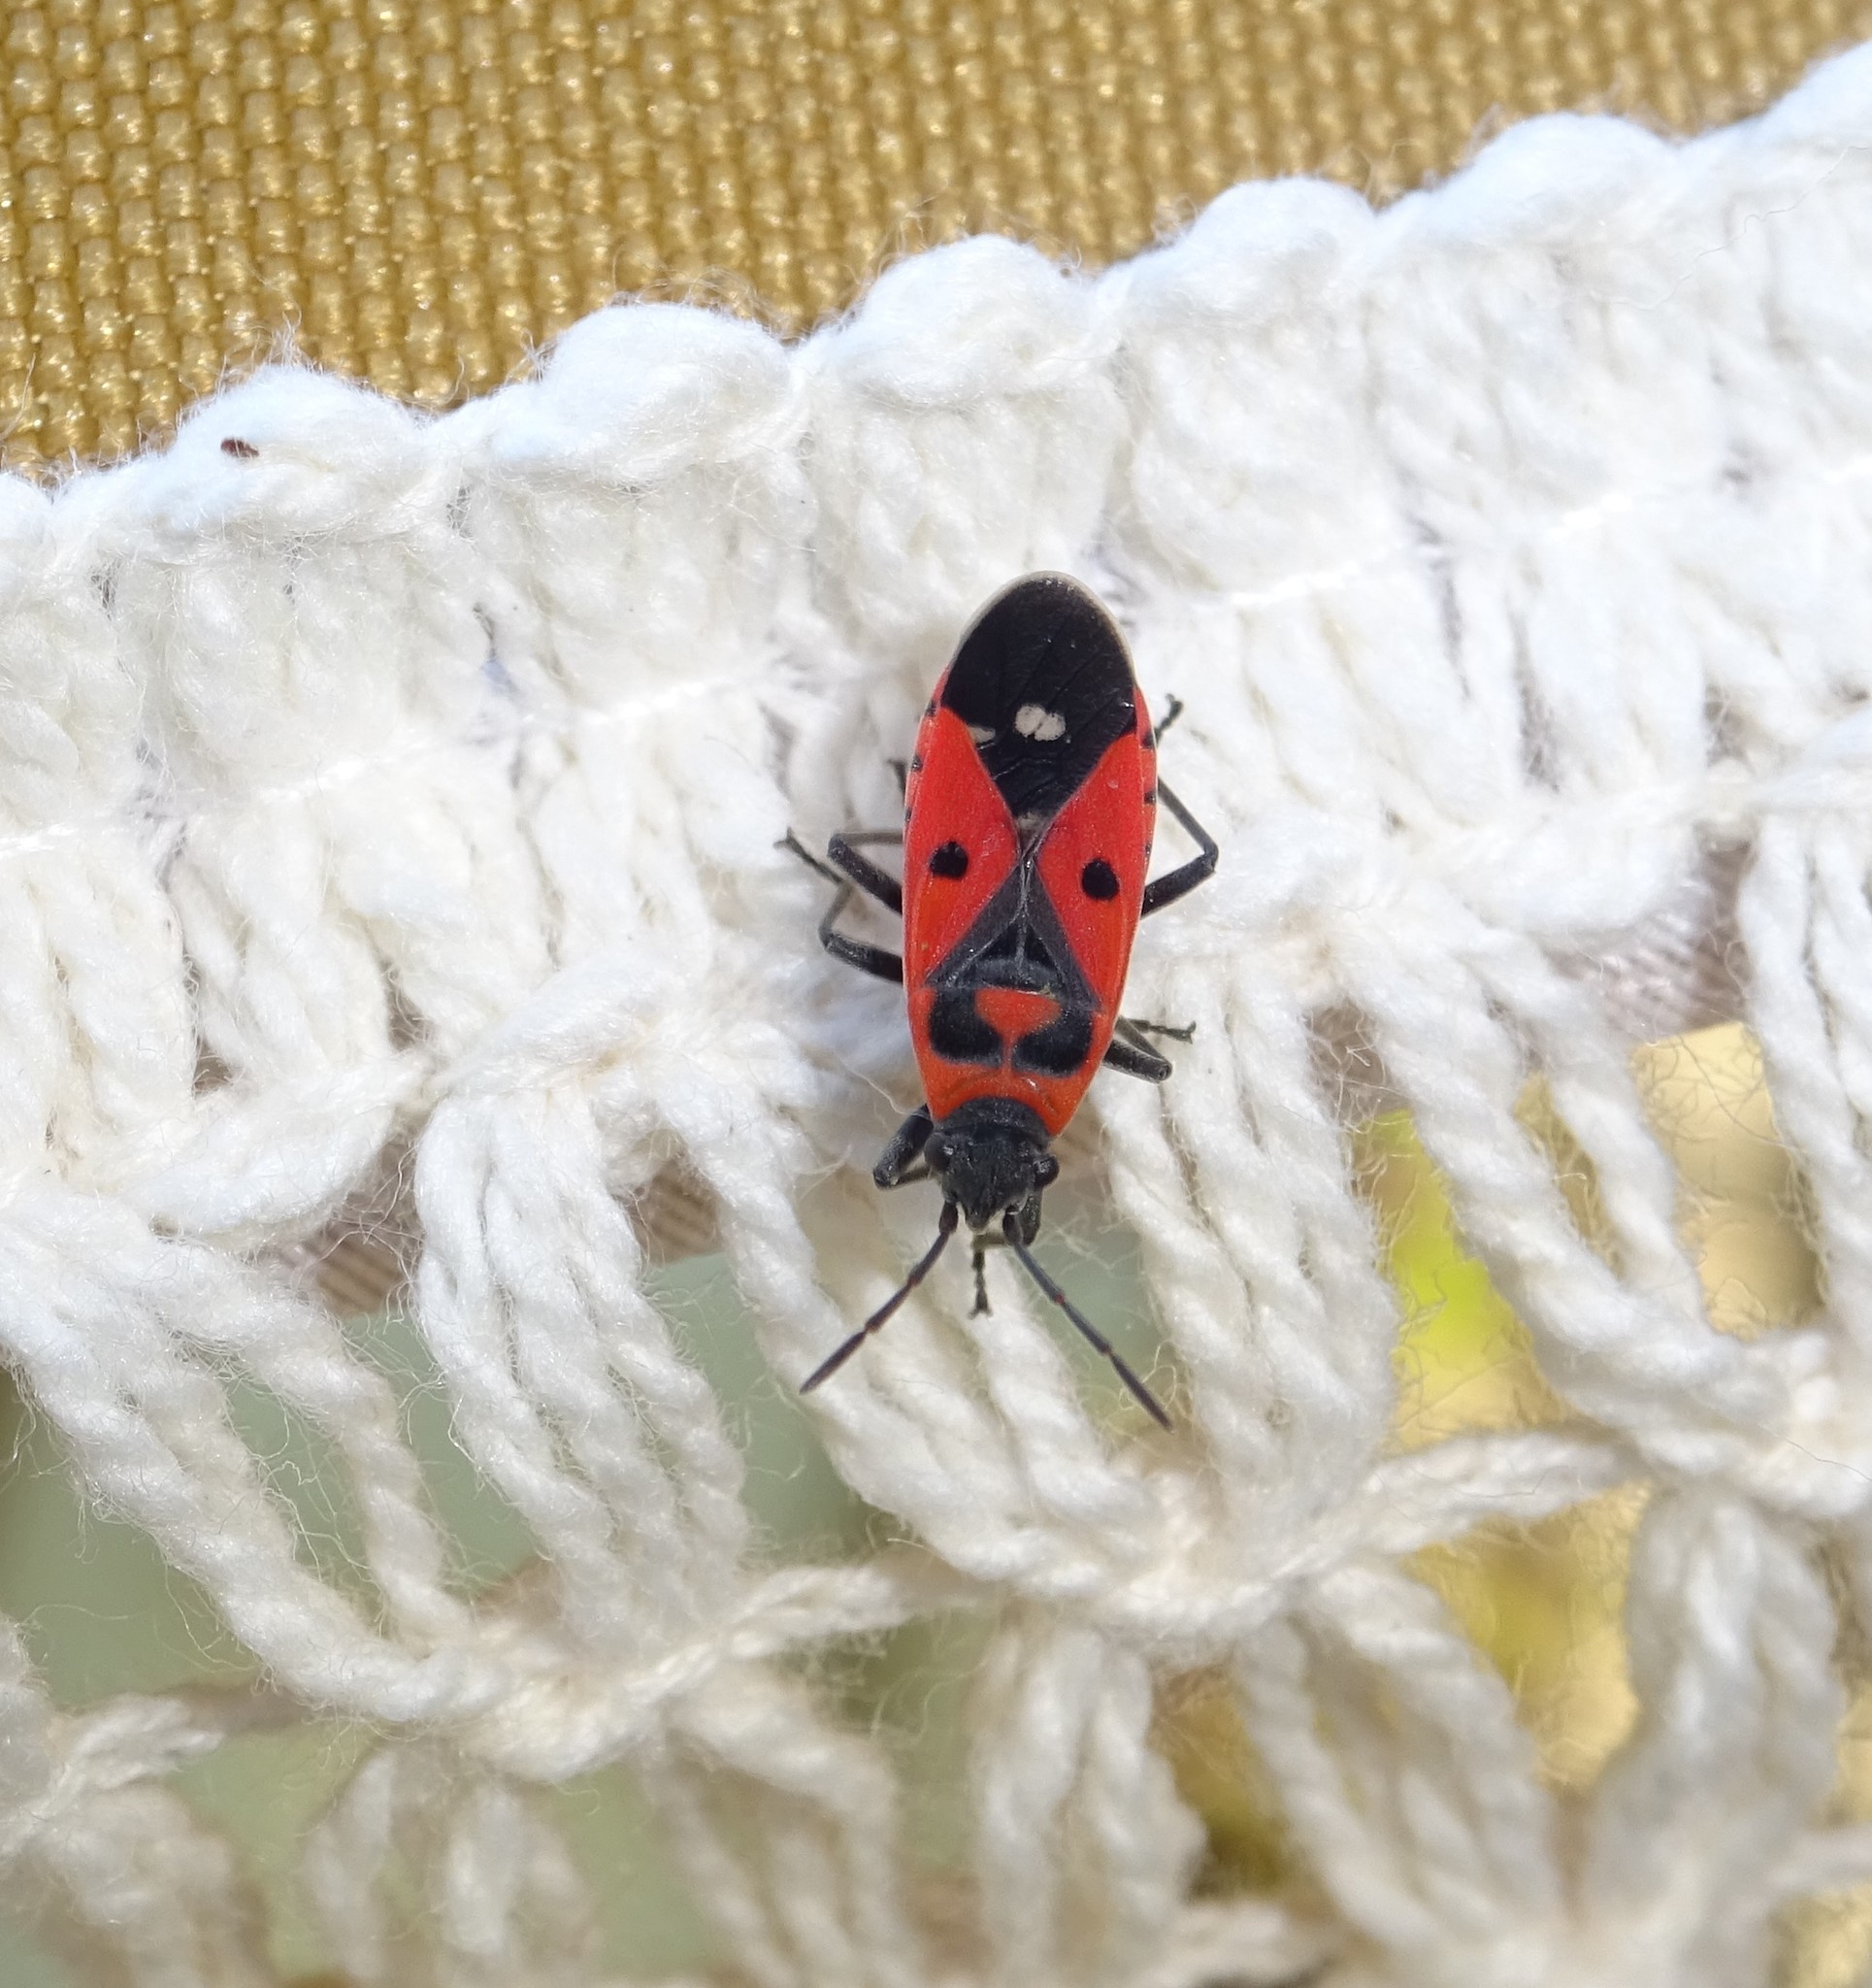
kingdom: Animalia
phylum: Arthropoda
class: Insecta
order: Hemiptera
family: Lygaeidae
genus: Melanocoryphus
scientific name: Melanocoryphus albomaculatus
